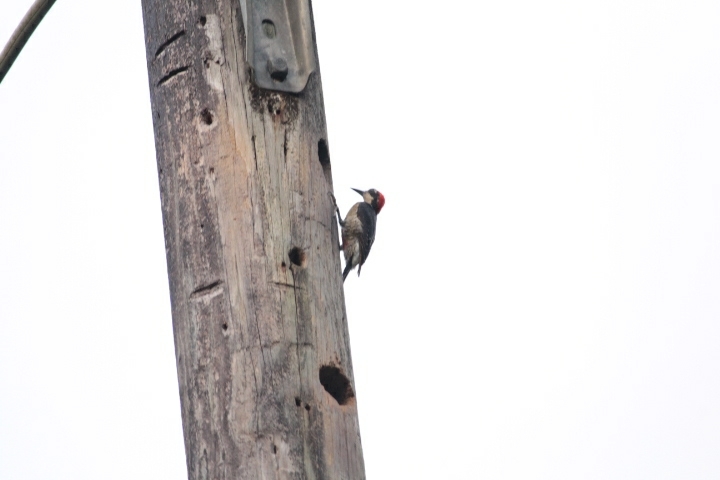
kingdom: Animalia
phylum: Chordata
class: Aves
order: Piciformes
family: Picidae
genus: Melanerpes
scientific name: Melanerpes pucherani
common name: Black-cheeked woodpecker
